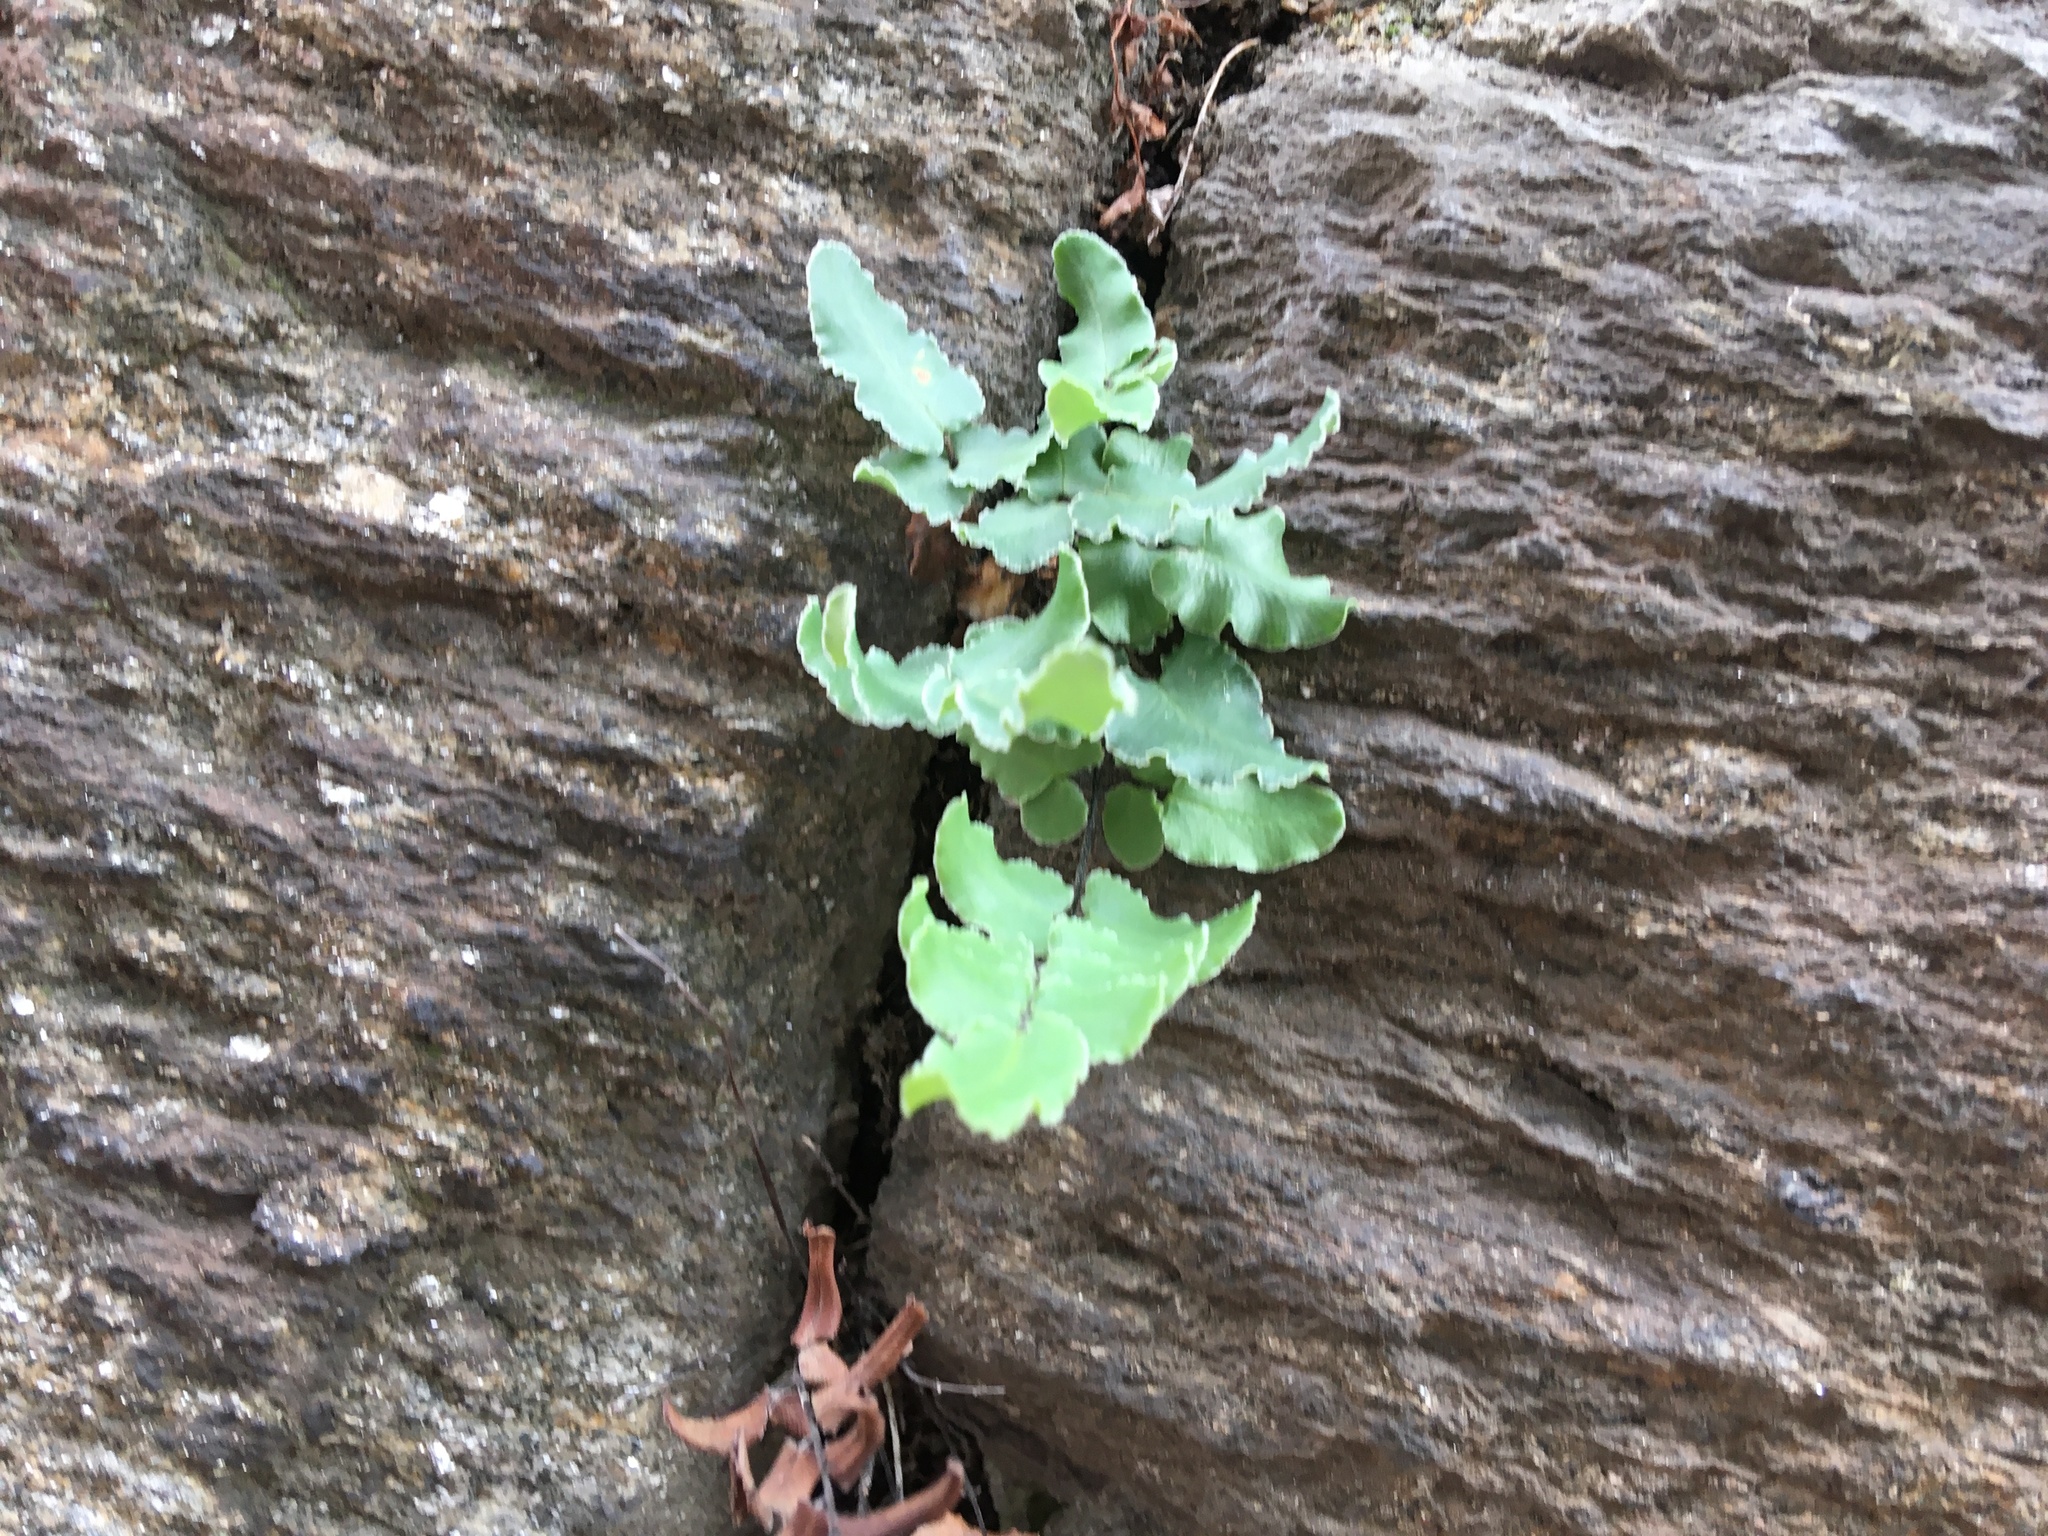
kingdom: Plantae
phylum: Tracheophyta
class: Polypodiopsida
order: Polypodiales
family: Pteridaceae
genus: Pellaea
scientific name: Pellaea atropurpurea
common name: Hairy cliffbrake
